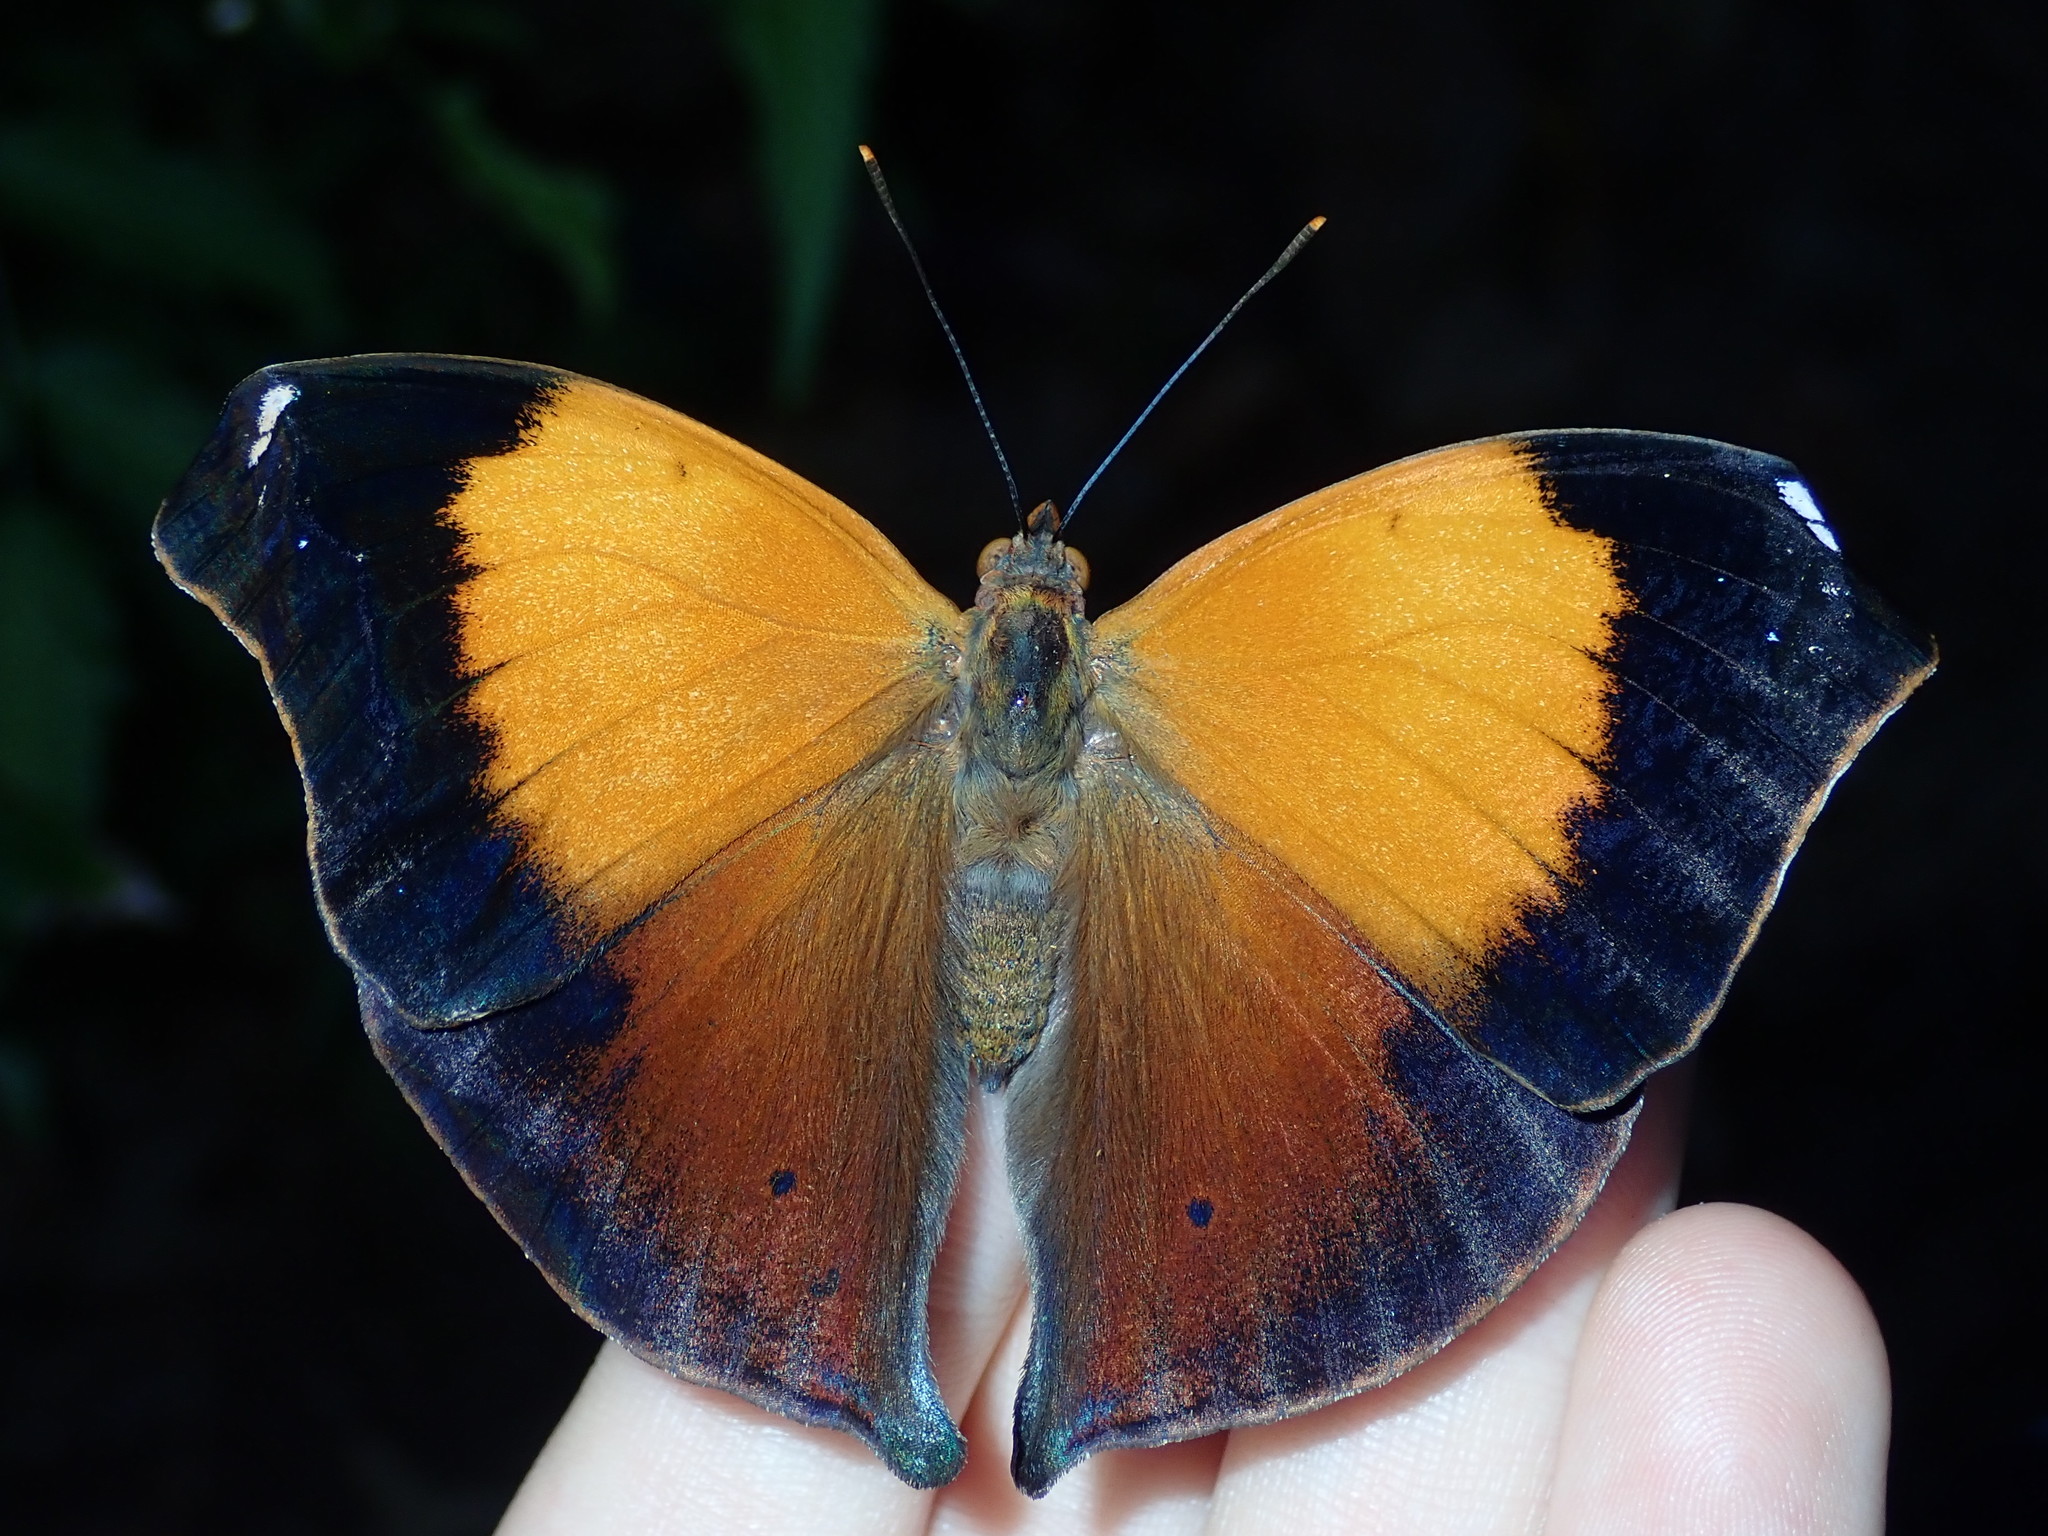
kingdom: Animalia
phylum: Arthropoda
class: Insecta
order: Lepidoptera
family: Nymphalidae
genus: Doleschallia
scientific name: Doleschallia bisaltide
